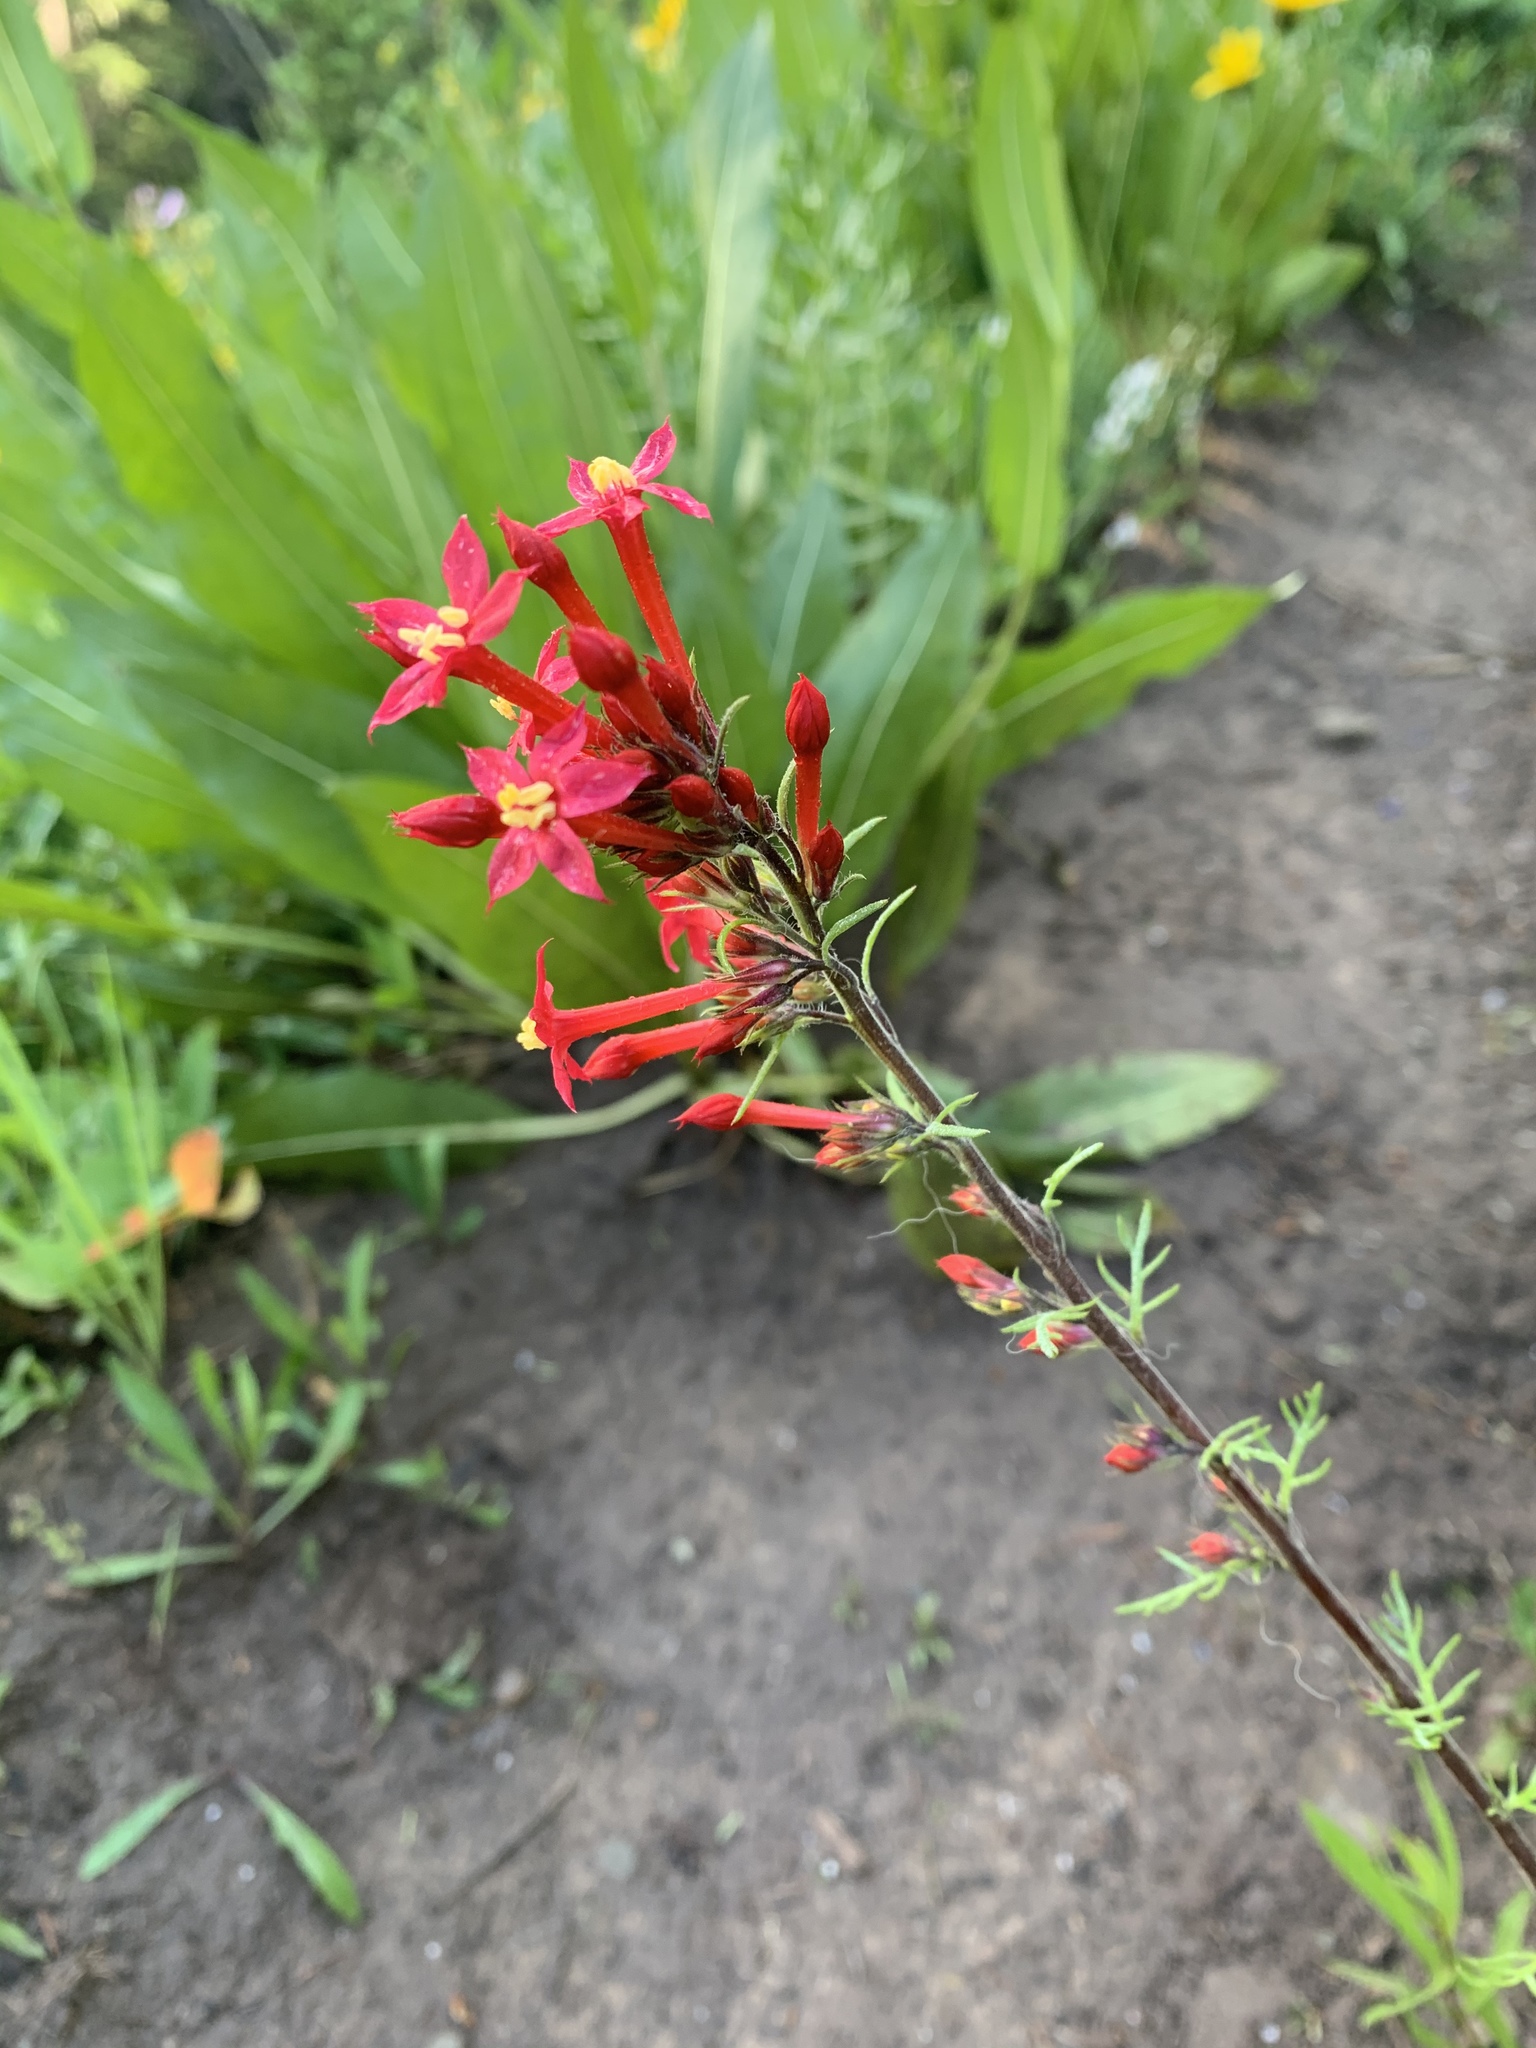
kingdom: Plantae
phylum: Tracheophyta
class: Magnoliopsida
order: Ericales
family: Polemoniaceae
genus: Ipomopsis
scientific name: Ipomopsis aggregata
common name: Scarlet gilia
